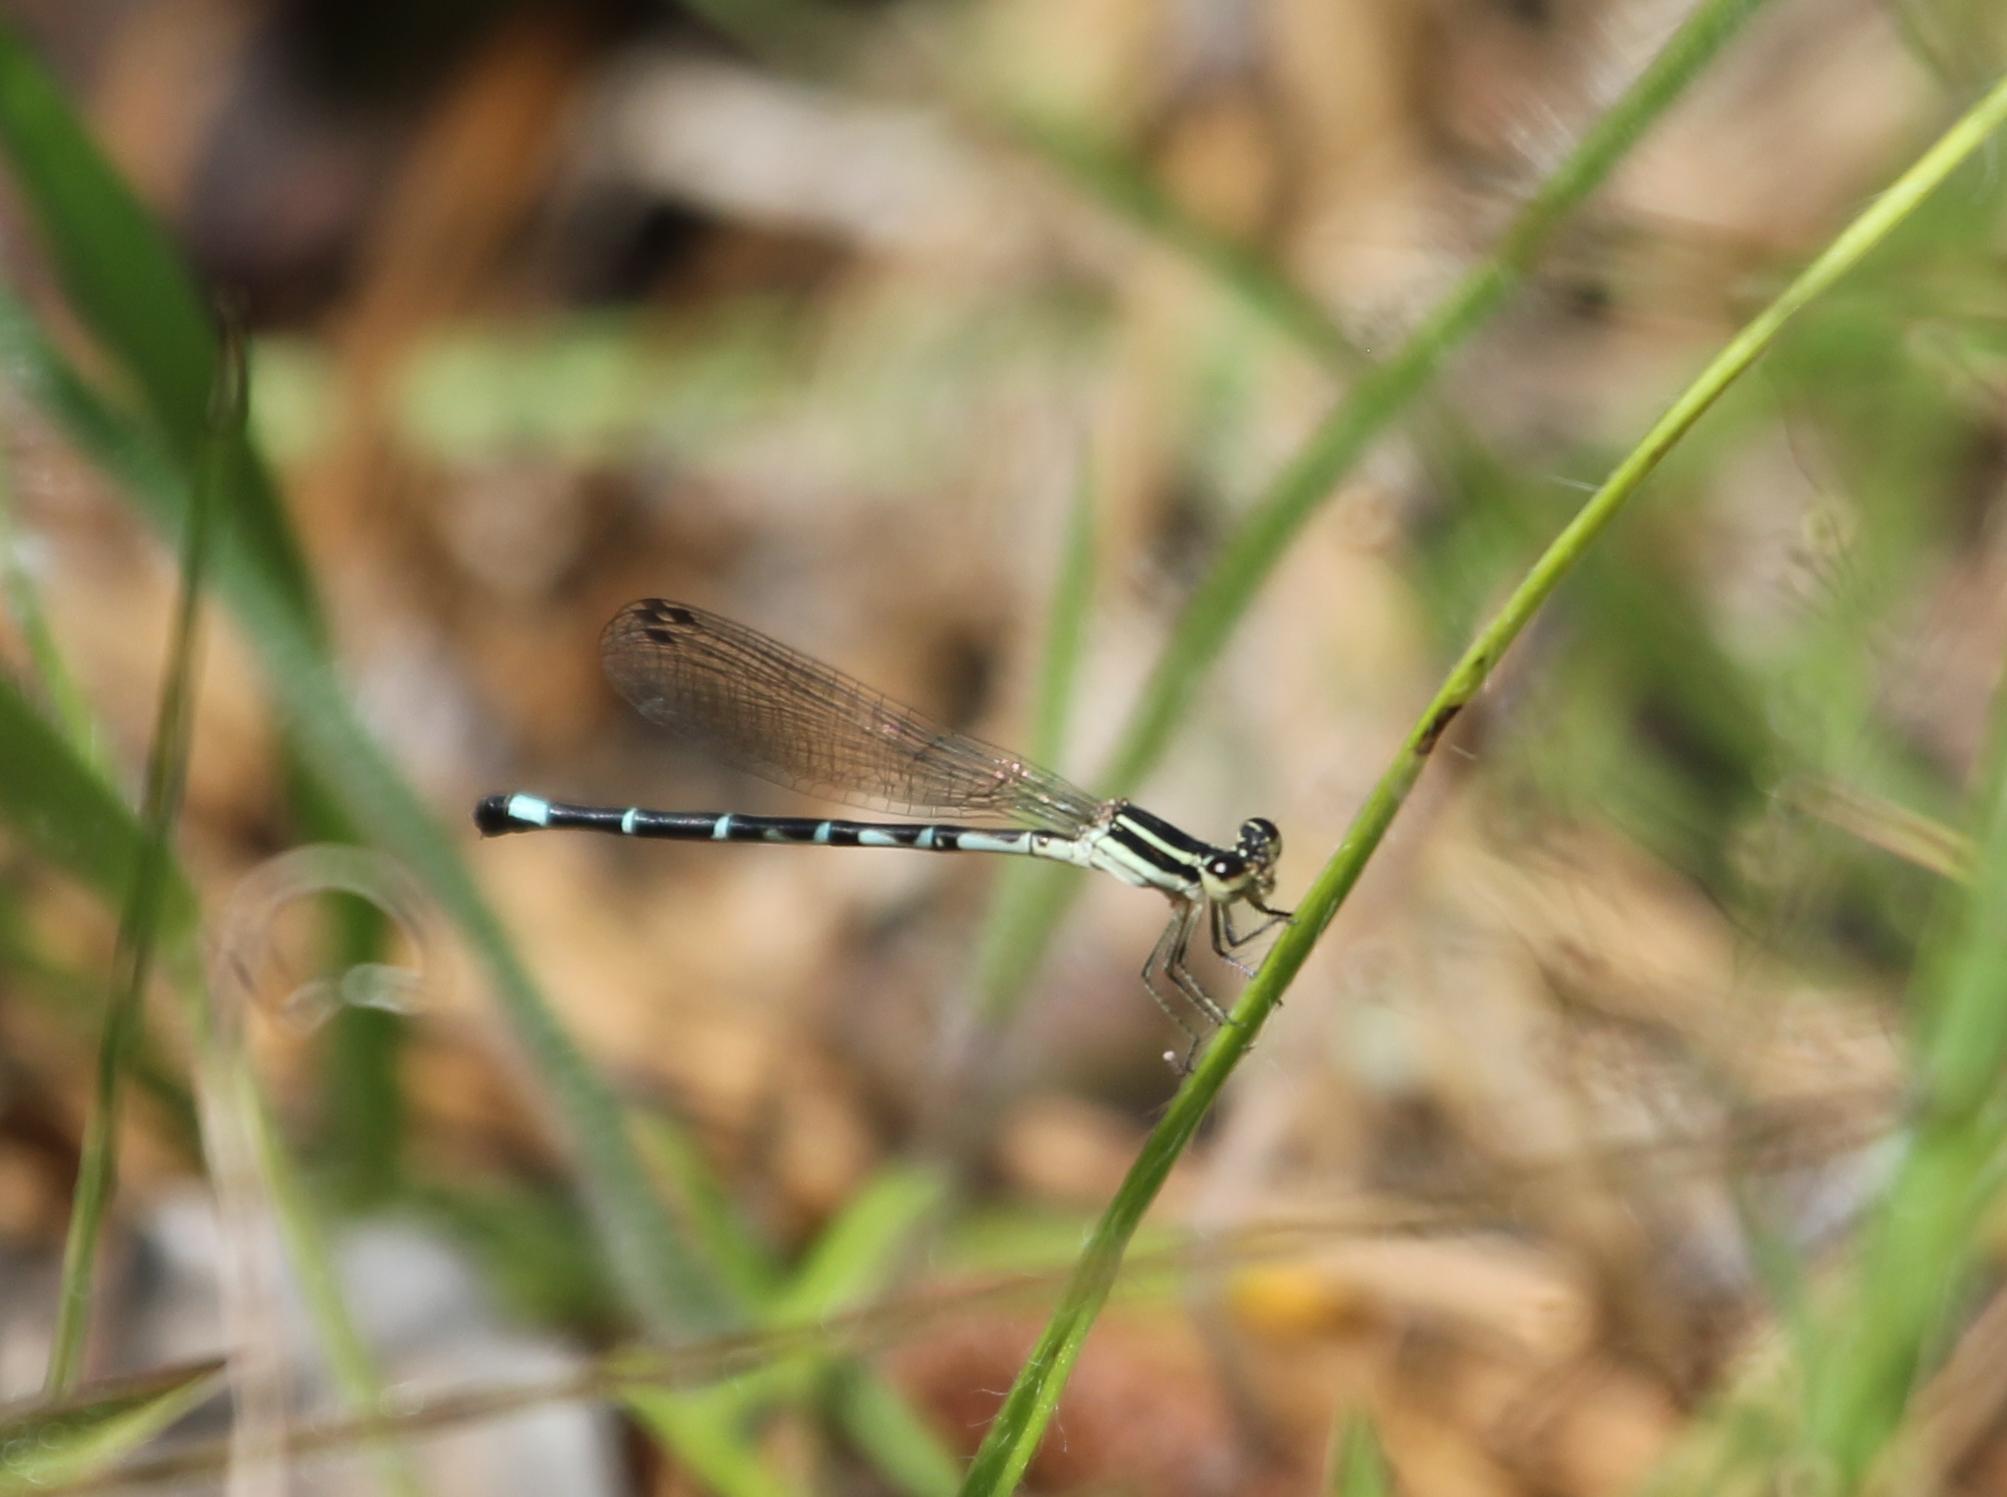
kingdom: Animalia
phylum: Arthropoda
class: Insecta
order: Odonata
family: Coenagrionidae
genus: Argia
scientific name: Argia bipunctulata
